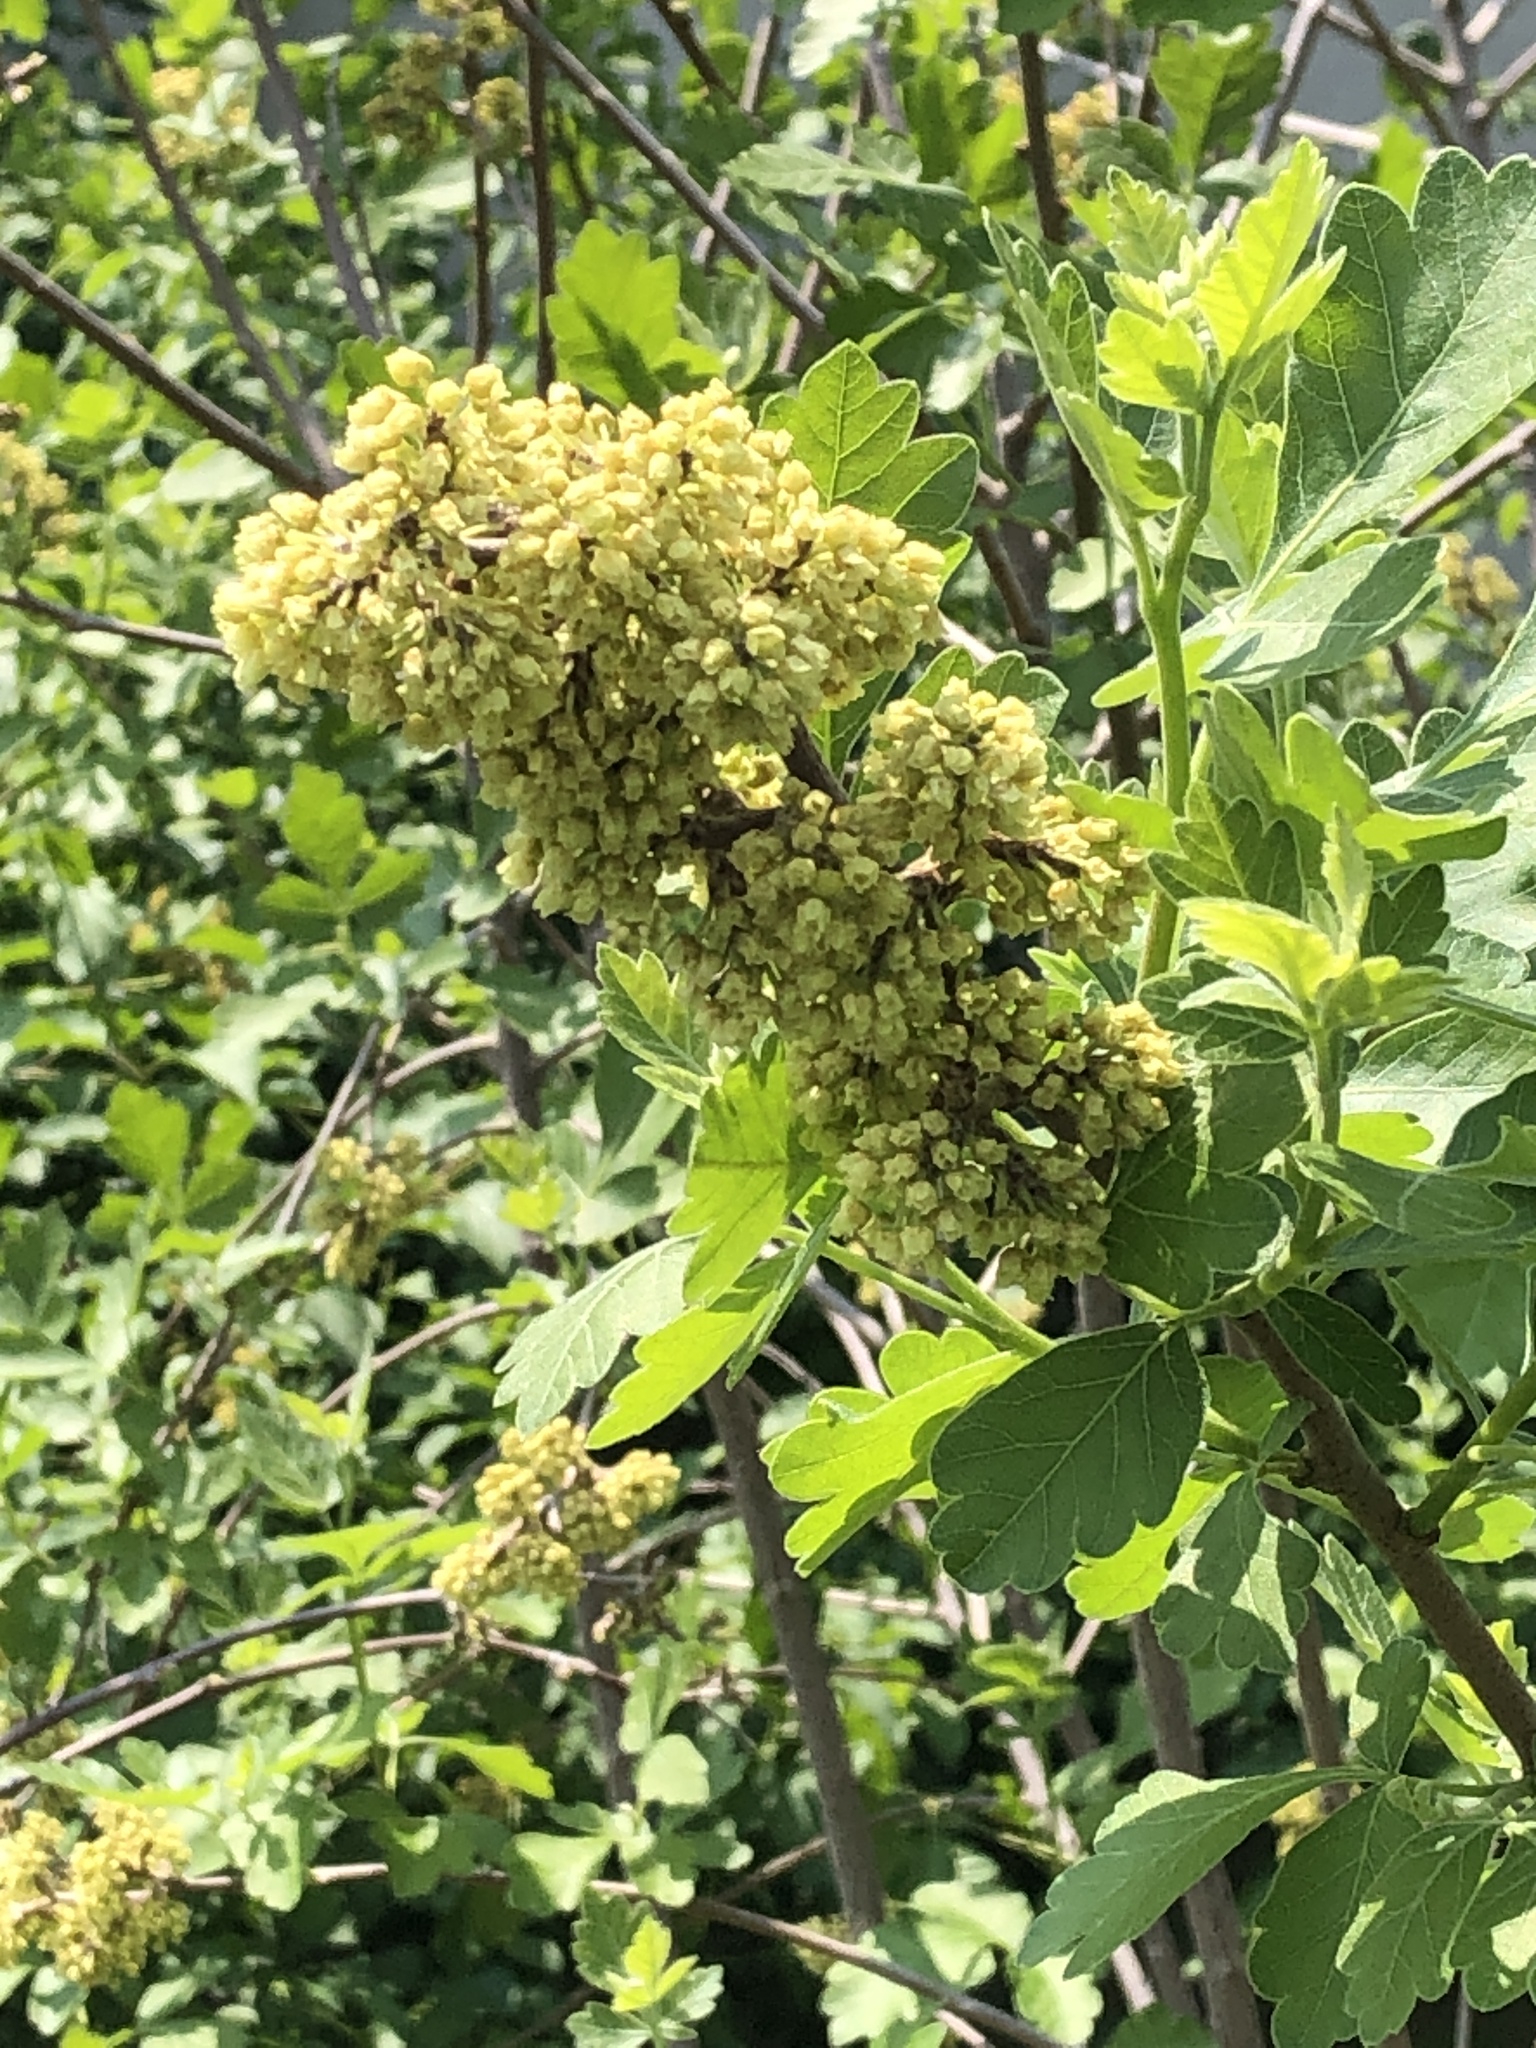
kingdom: Plantae
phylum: Tracheophyta
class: Magnoliopsida
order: Sapindales
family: Anacardiaceae
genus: Rhus
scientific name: Rhus aromatica
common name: Aromatic sumac
